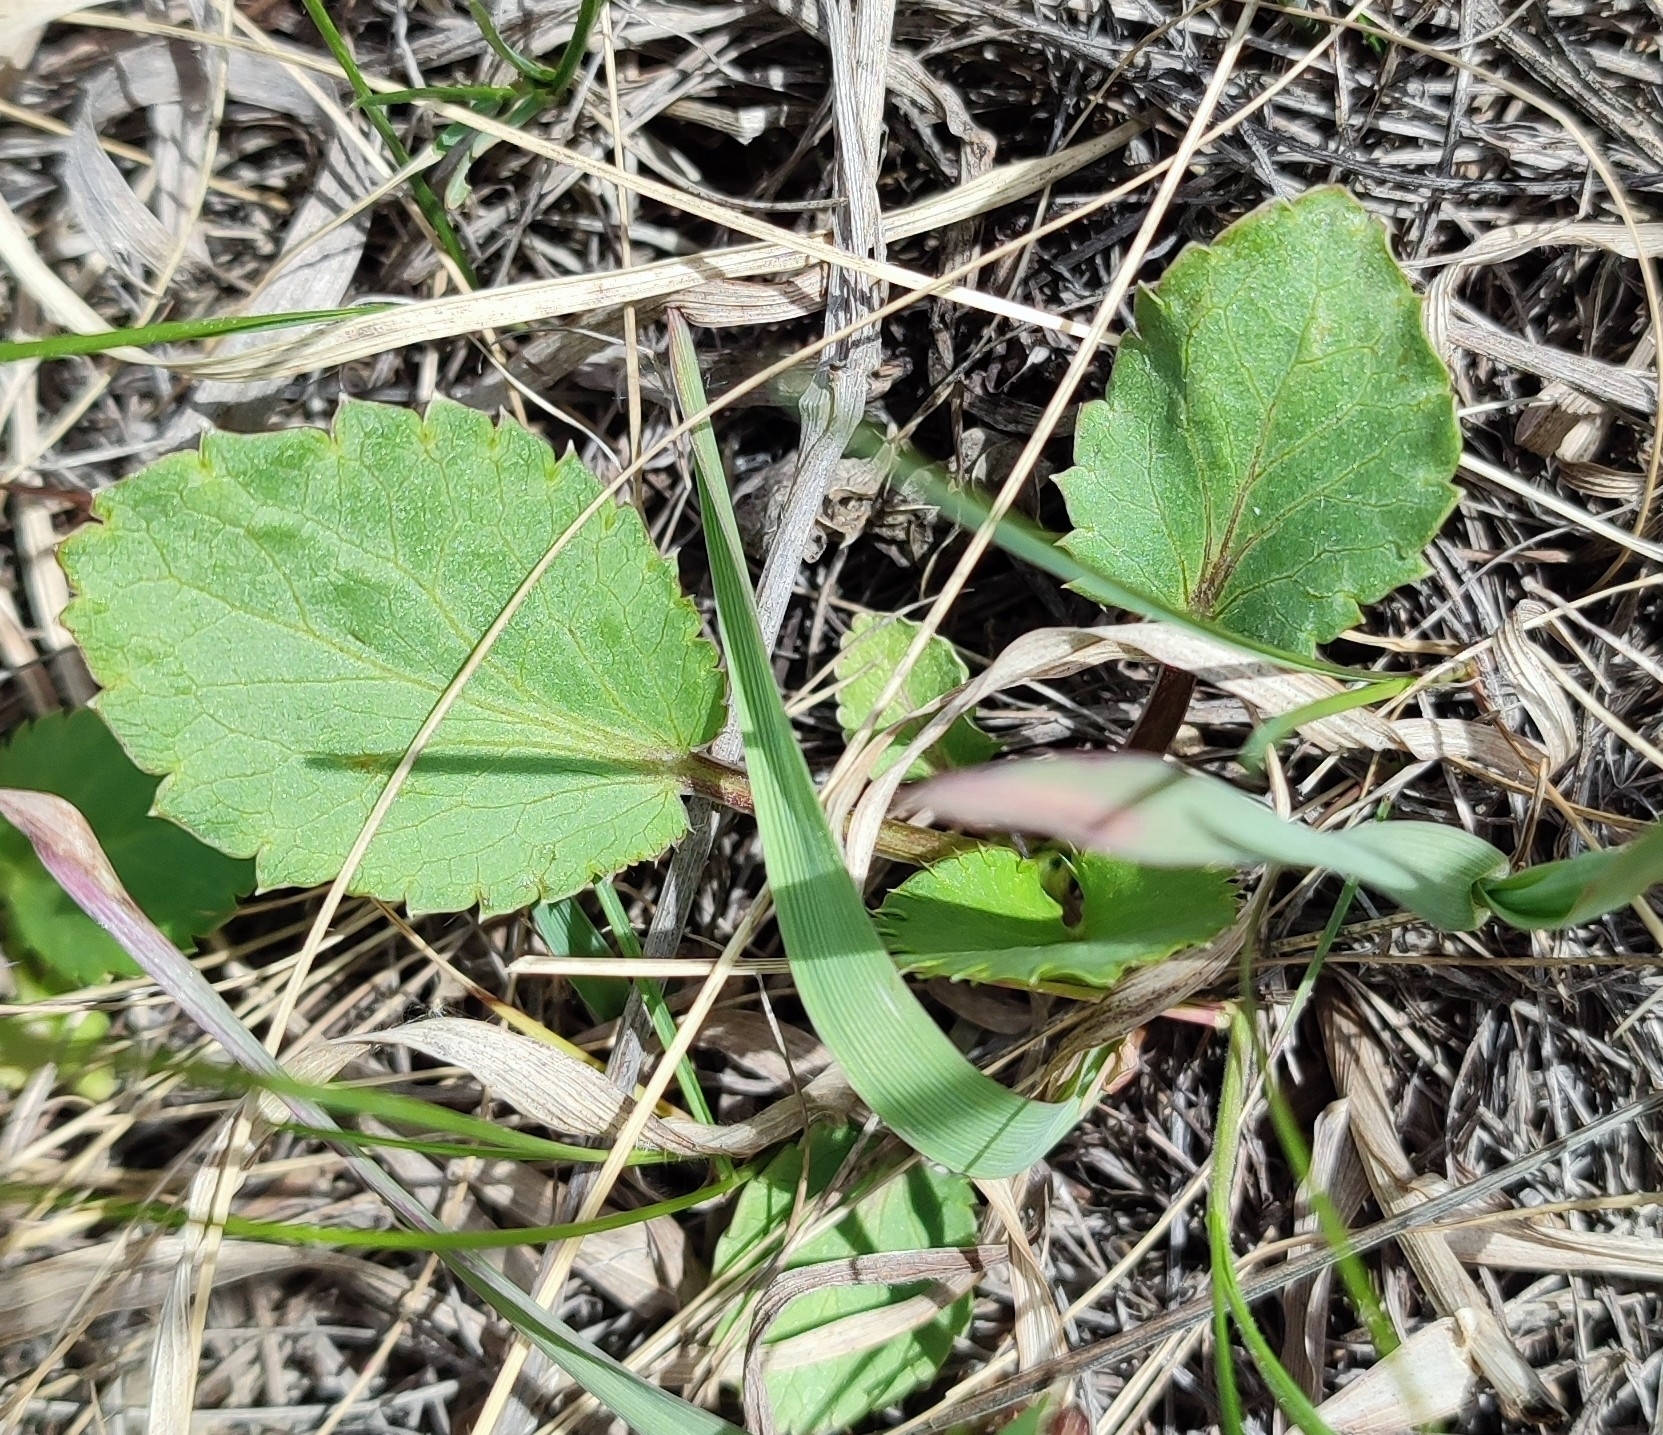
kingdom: Plantae
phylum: Tracheophyta
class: Magnoliopsida
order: Apiales
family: Apiaceae
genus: Eryngium
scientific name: Eryngium planum
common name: Blue eryngo
